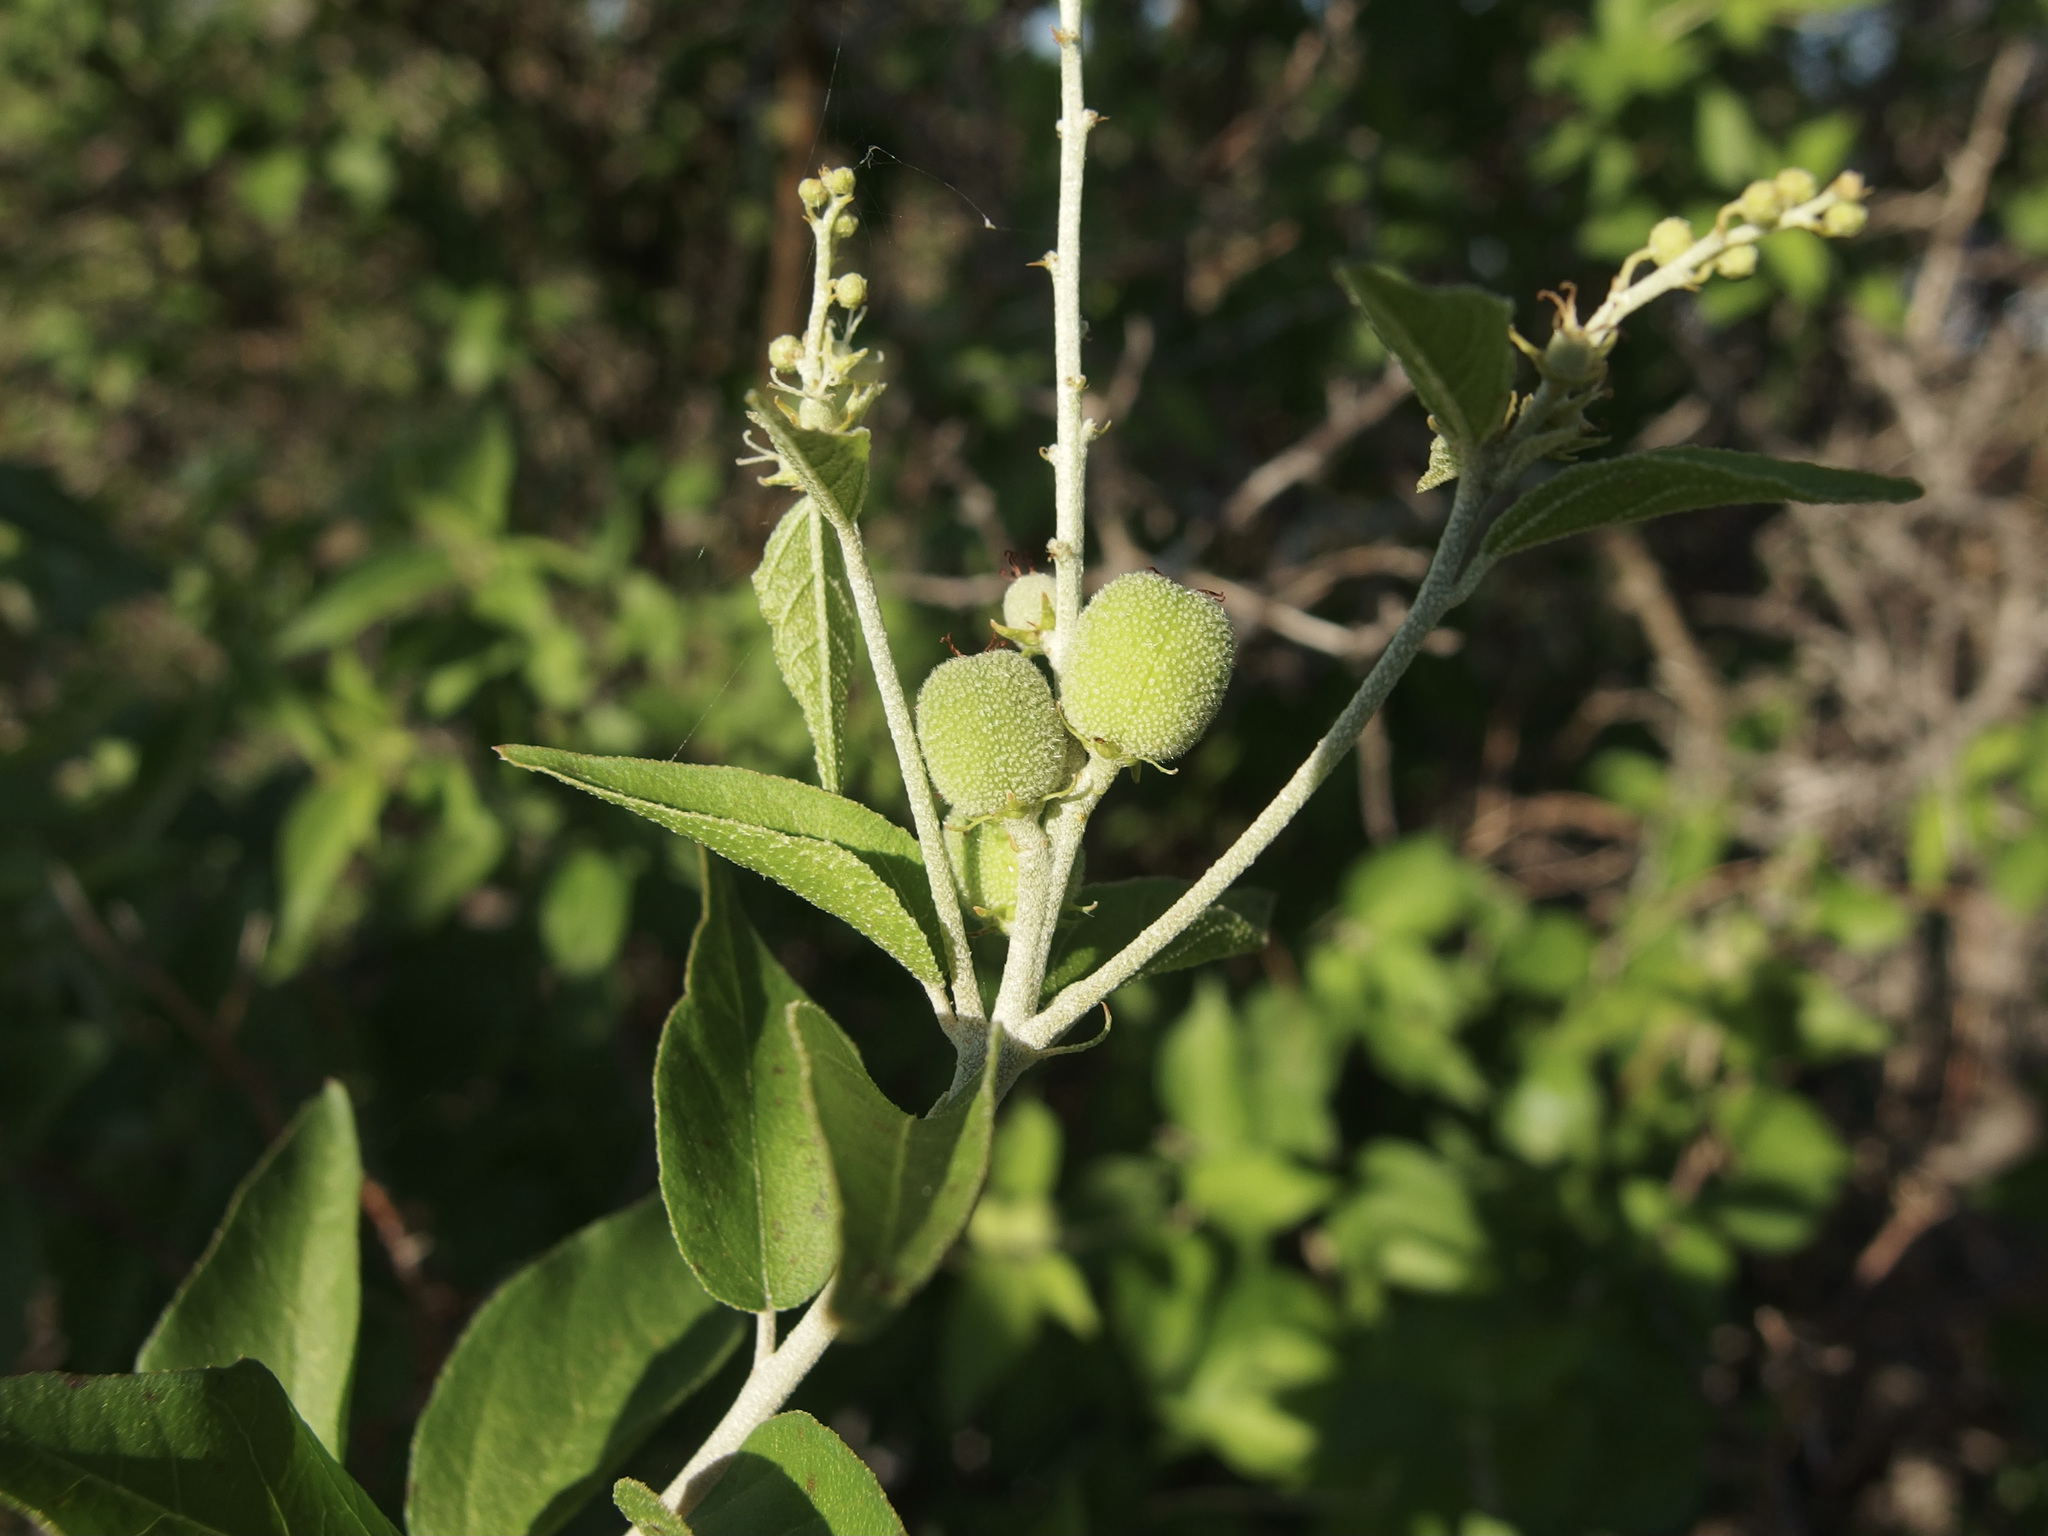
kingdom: Plantae
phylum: Tracheophyta
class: Magnoliopsida
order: Malpighiales
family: Euphorbiaceae
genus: Croton
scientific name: Croton sonorae
